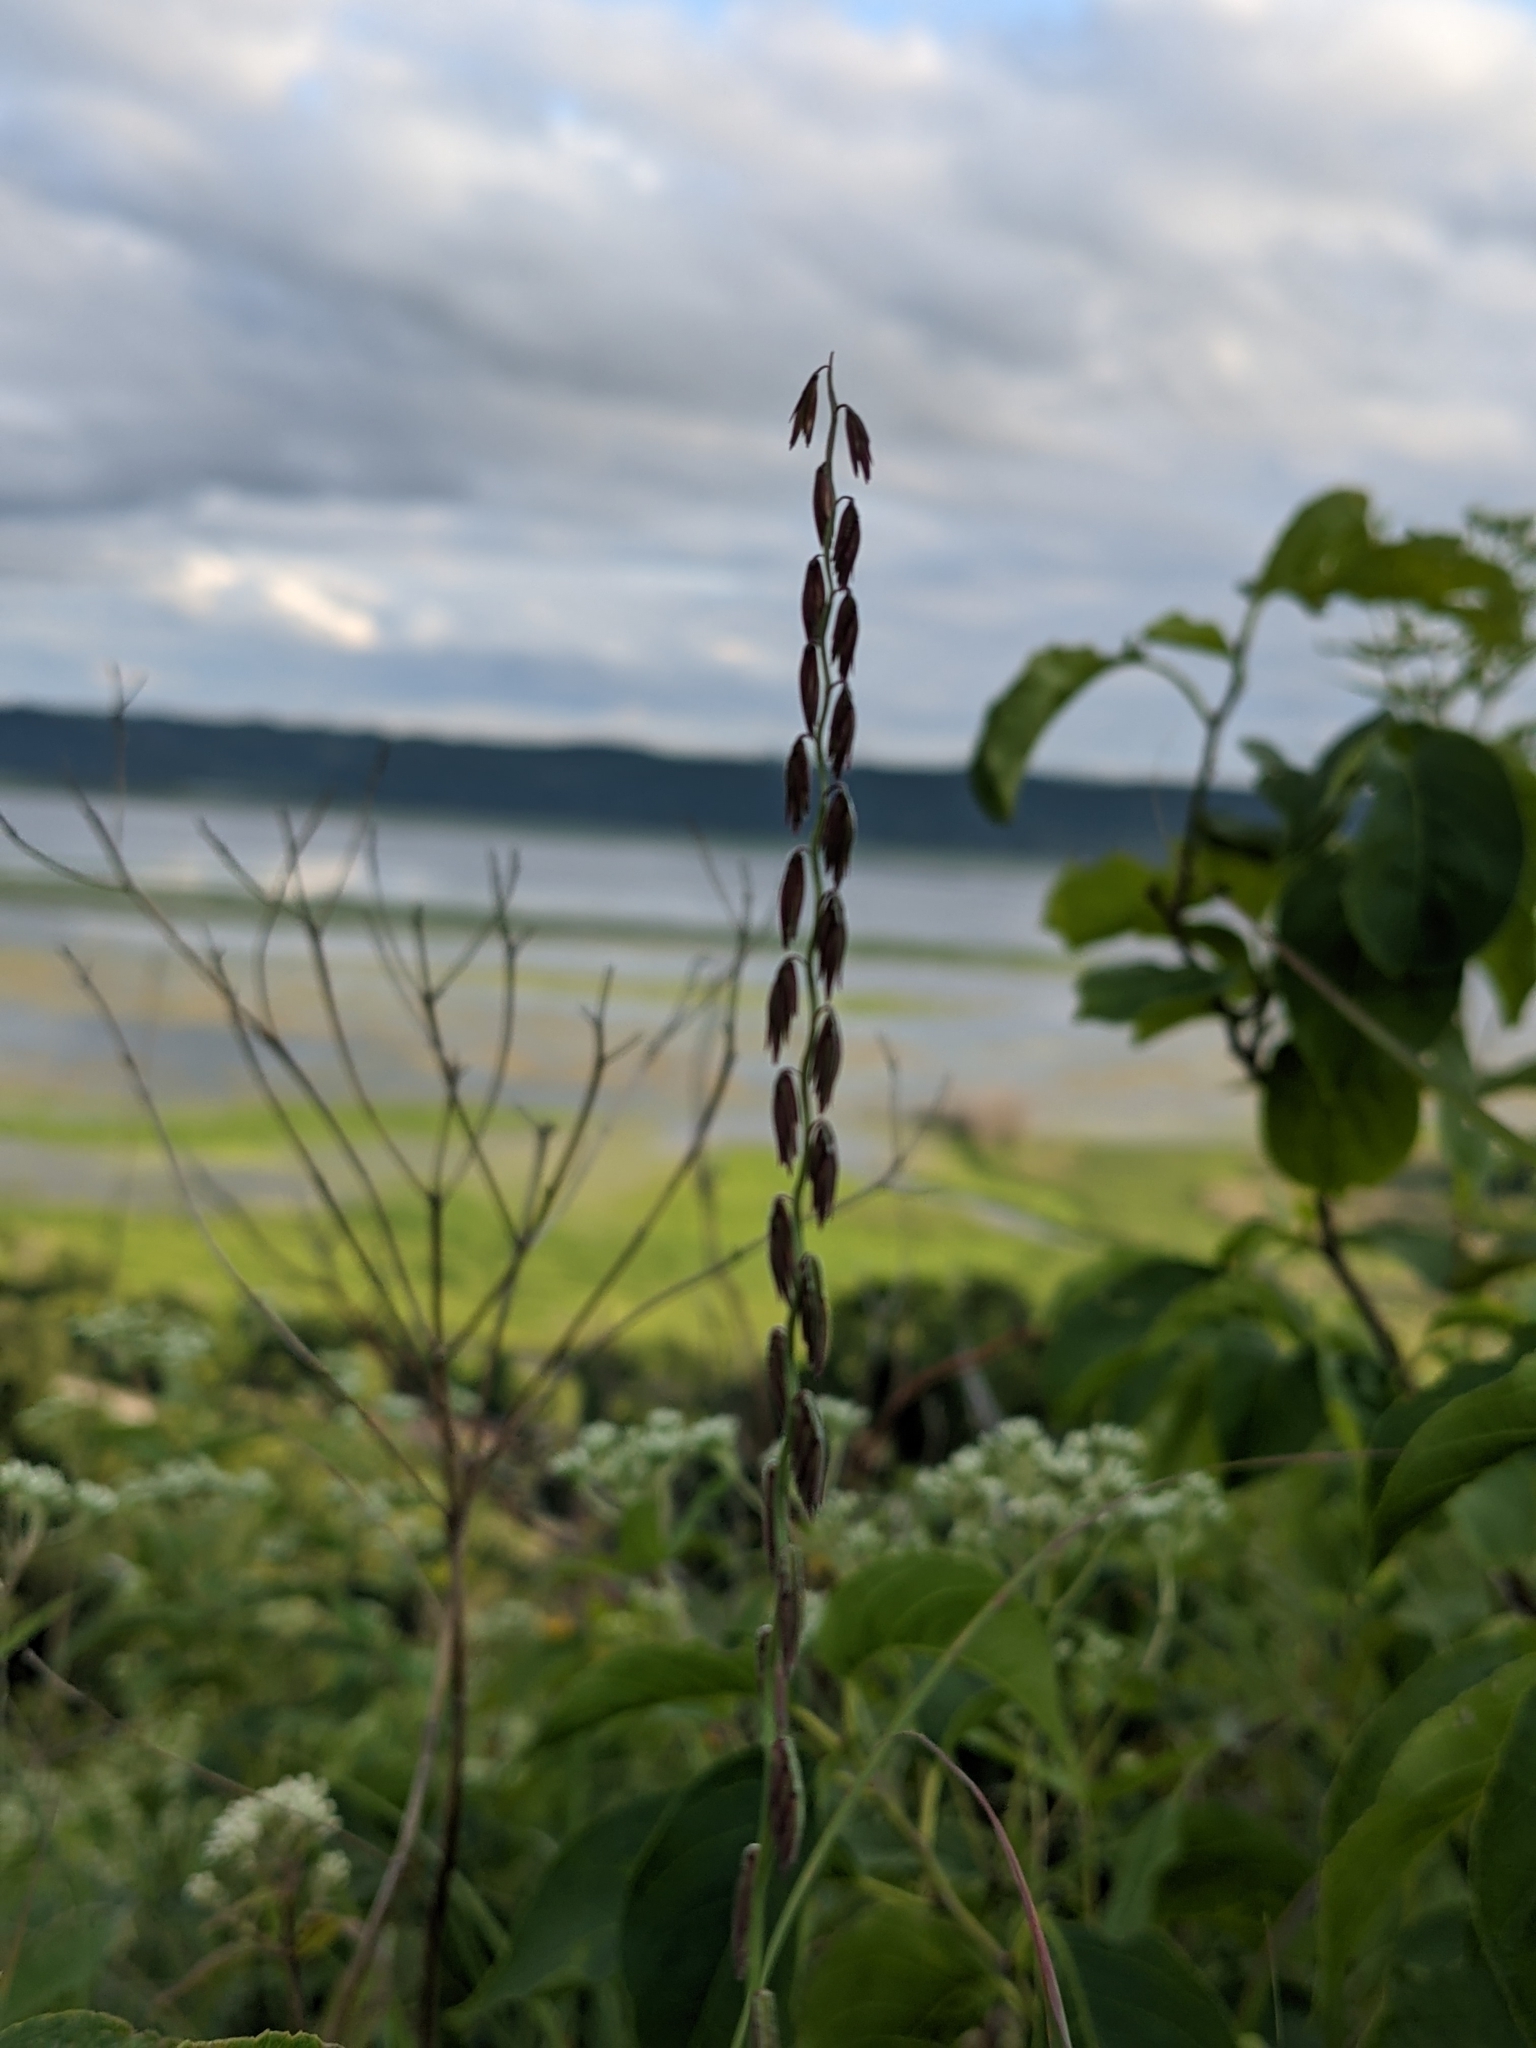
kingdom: Plantae
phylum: Tracheophyta
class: Liliopsida
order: Poales
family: Poaceae
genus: Bouteloua
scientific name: Bouteloua curtipendula
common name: Side-oats grama
